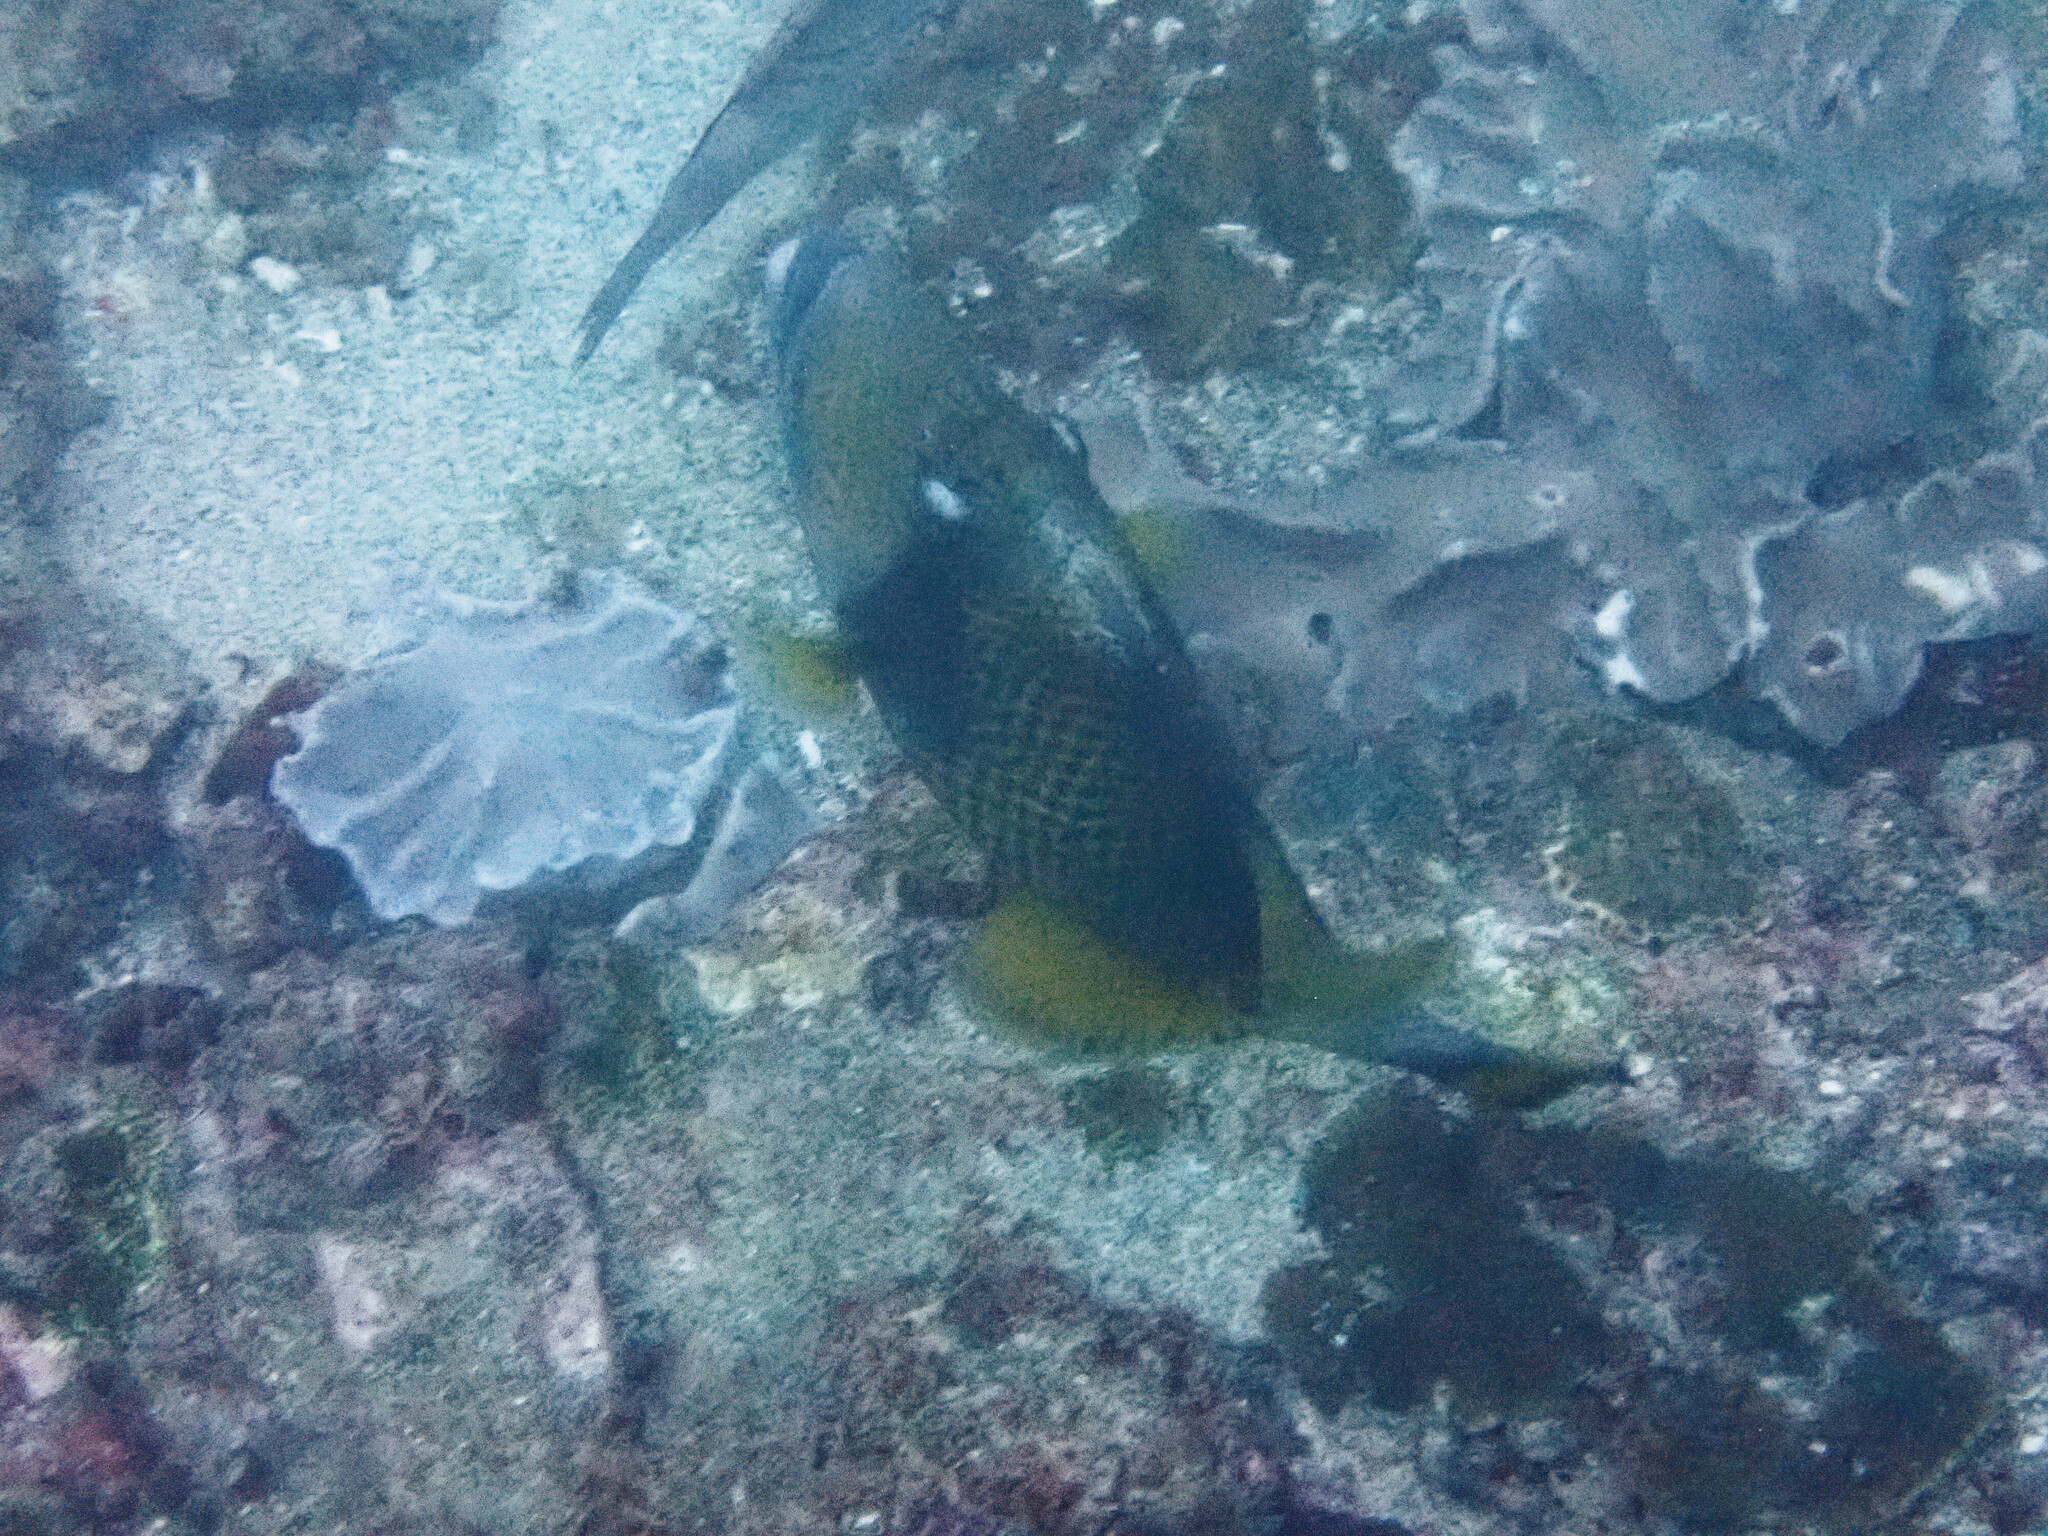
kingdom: Animalia
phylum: Chordata
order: Tetraodontiformes
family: Balistidae
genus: Balistoides
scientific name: Balistoides viridescens
